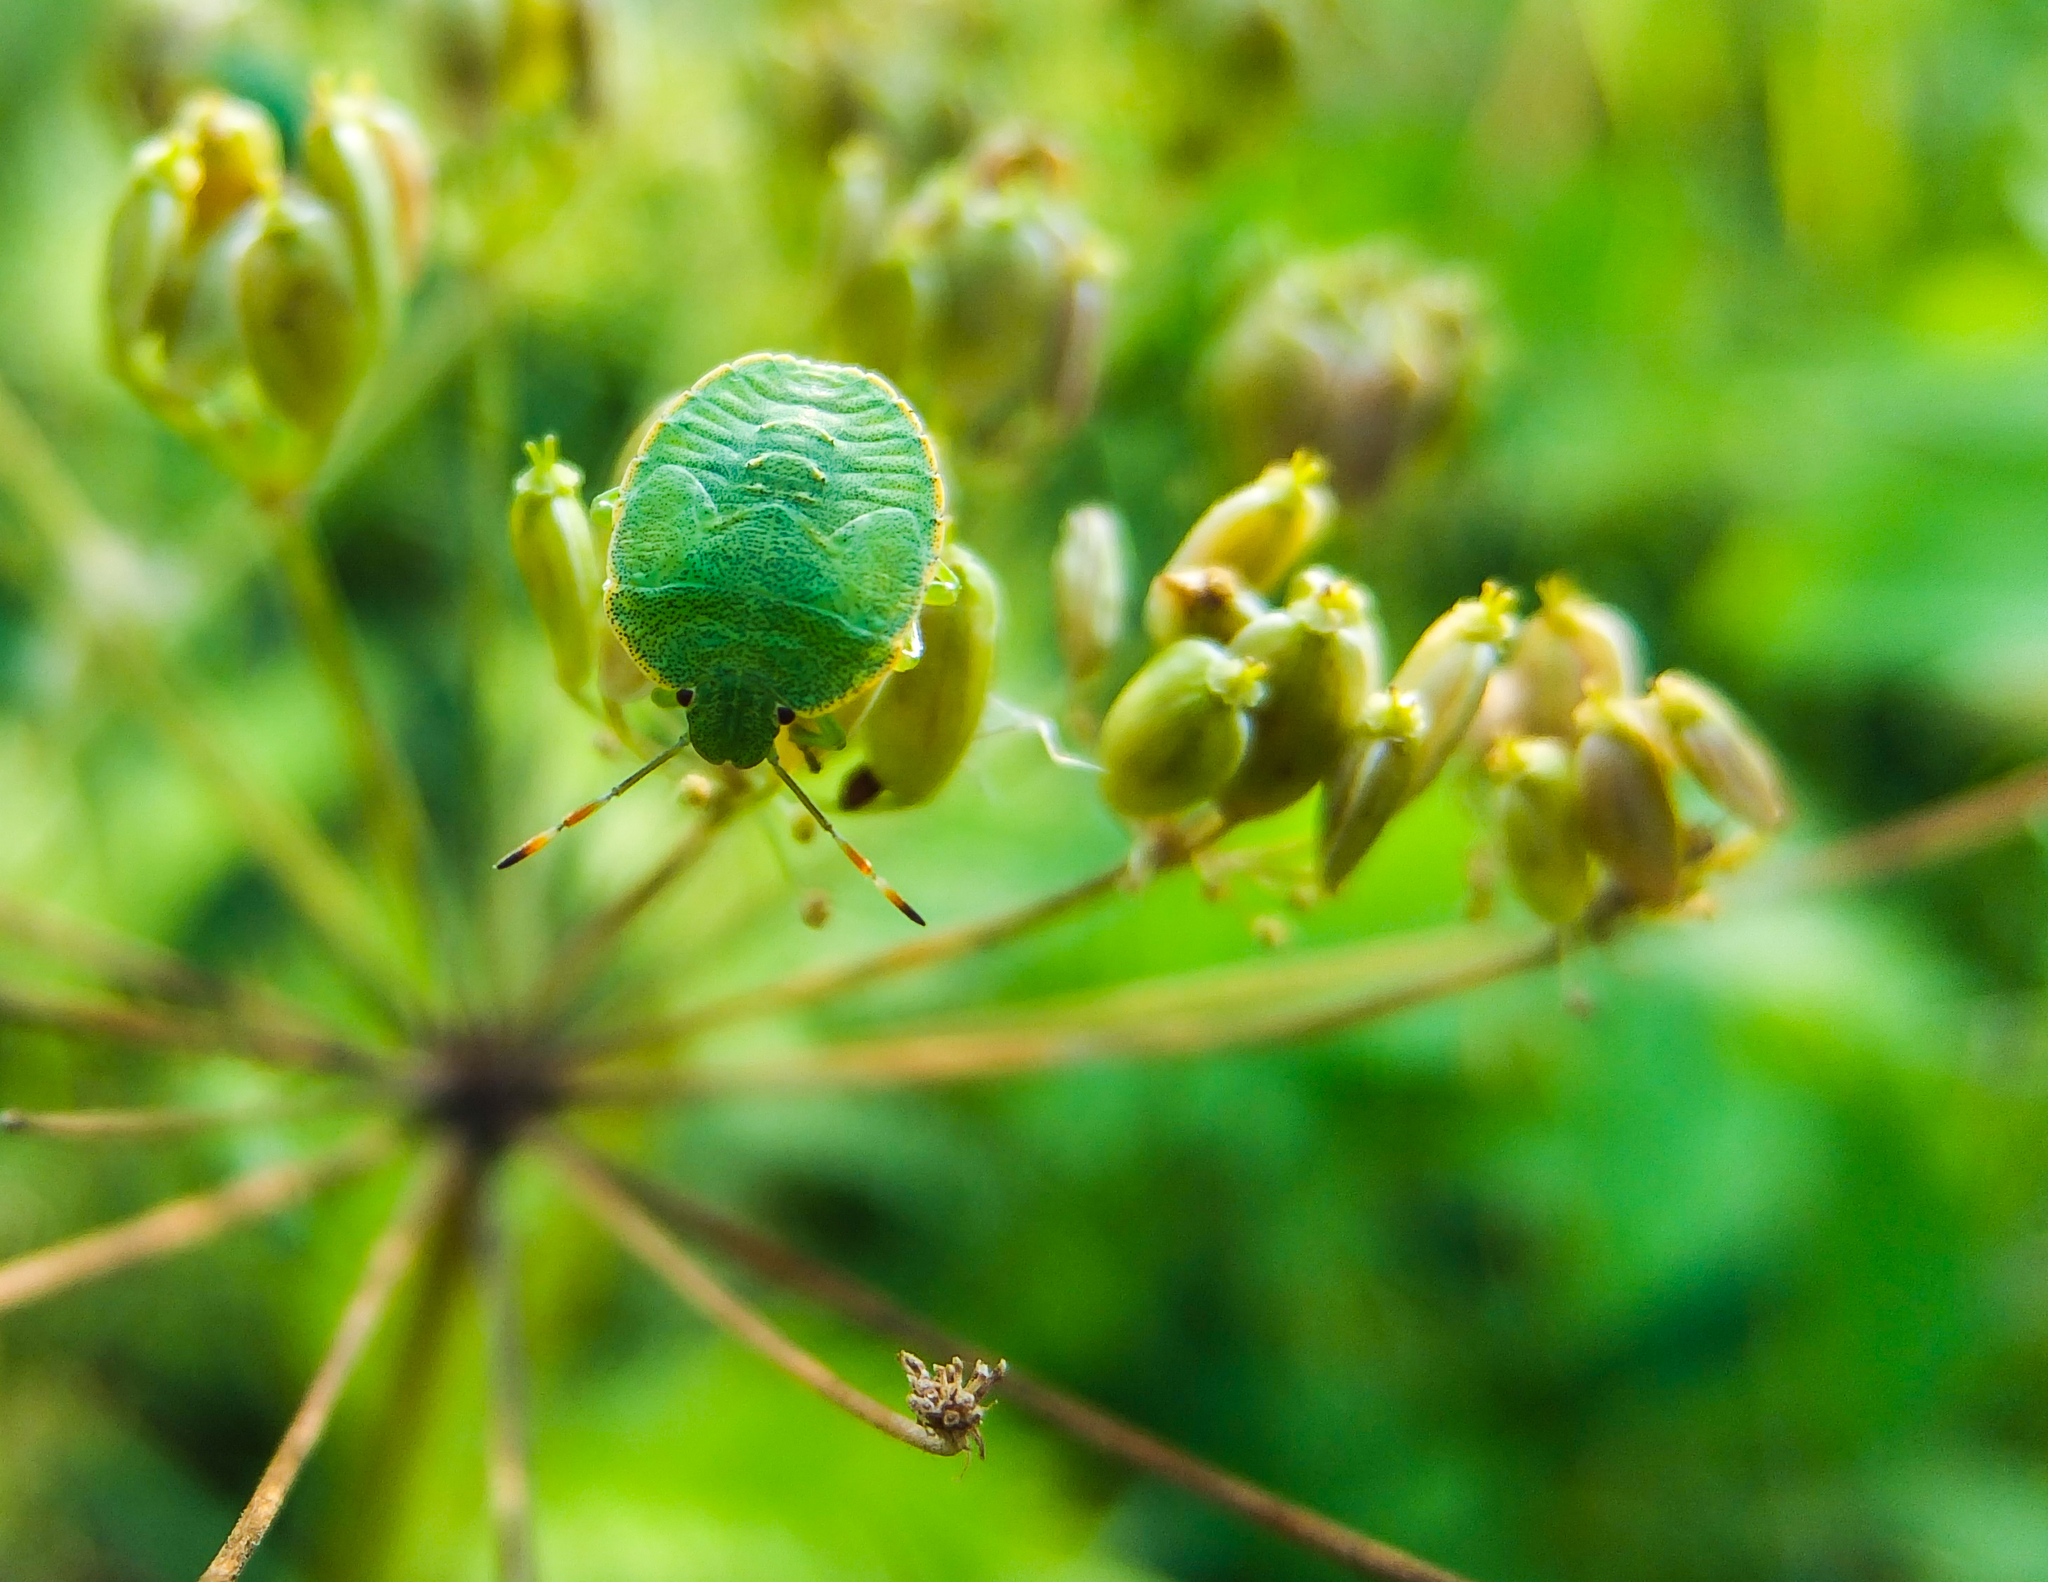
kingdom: Animalia
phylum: Arthropoda
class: Insecta
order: Hemiptera
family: Pentatomidae
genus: Palomena
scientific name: Palomena prasina
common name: Green shieldbug
